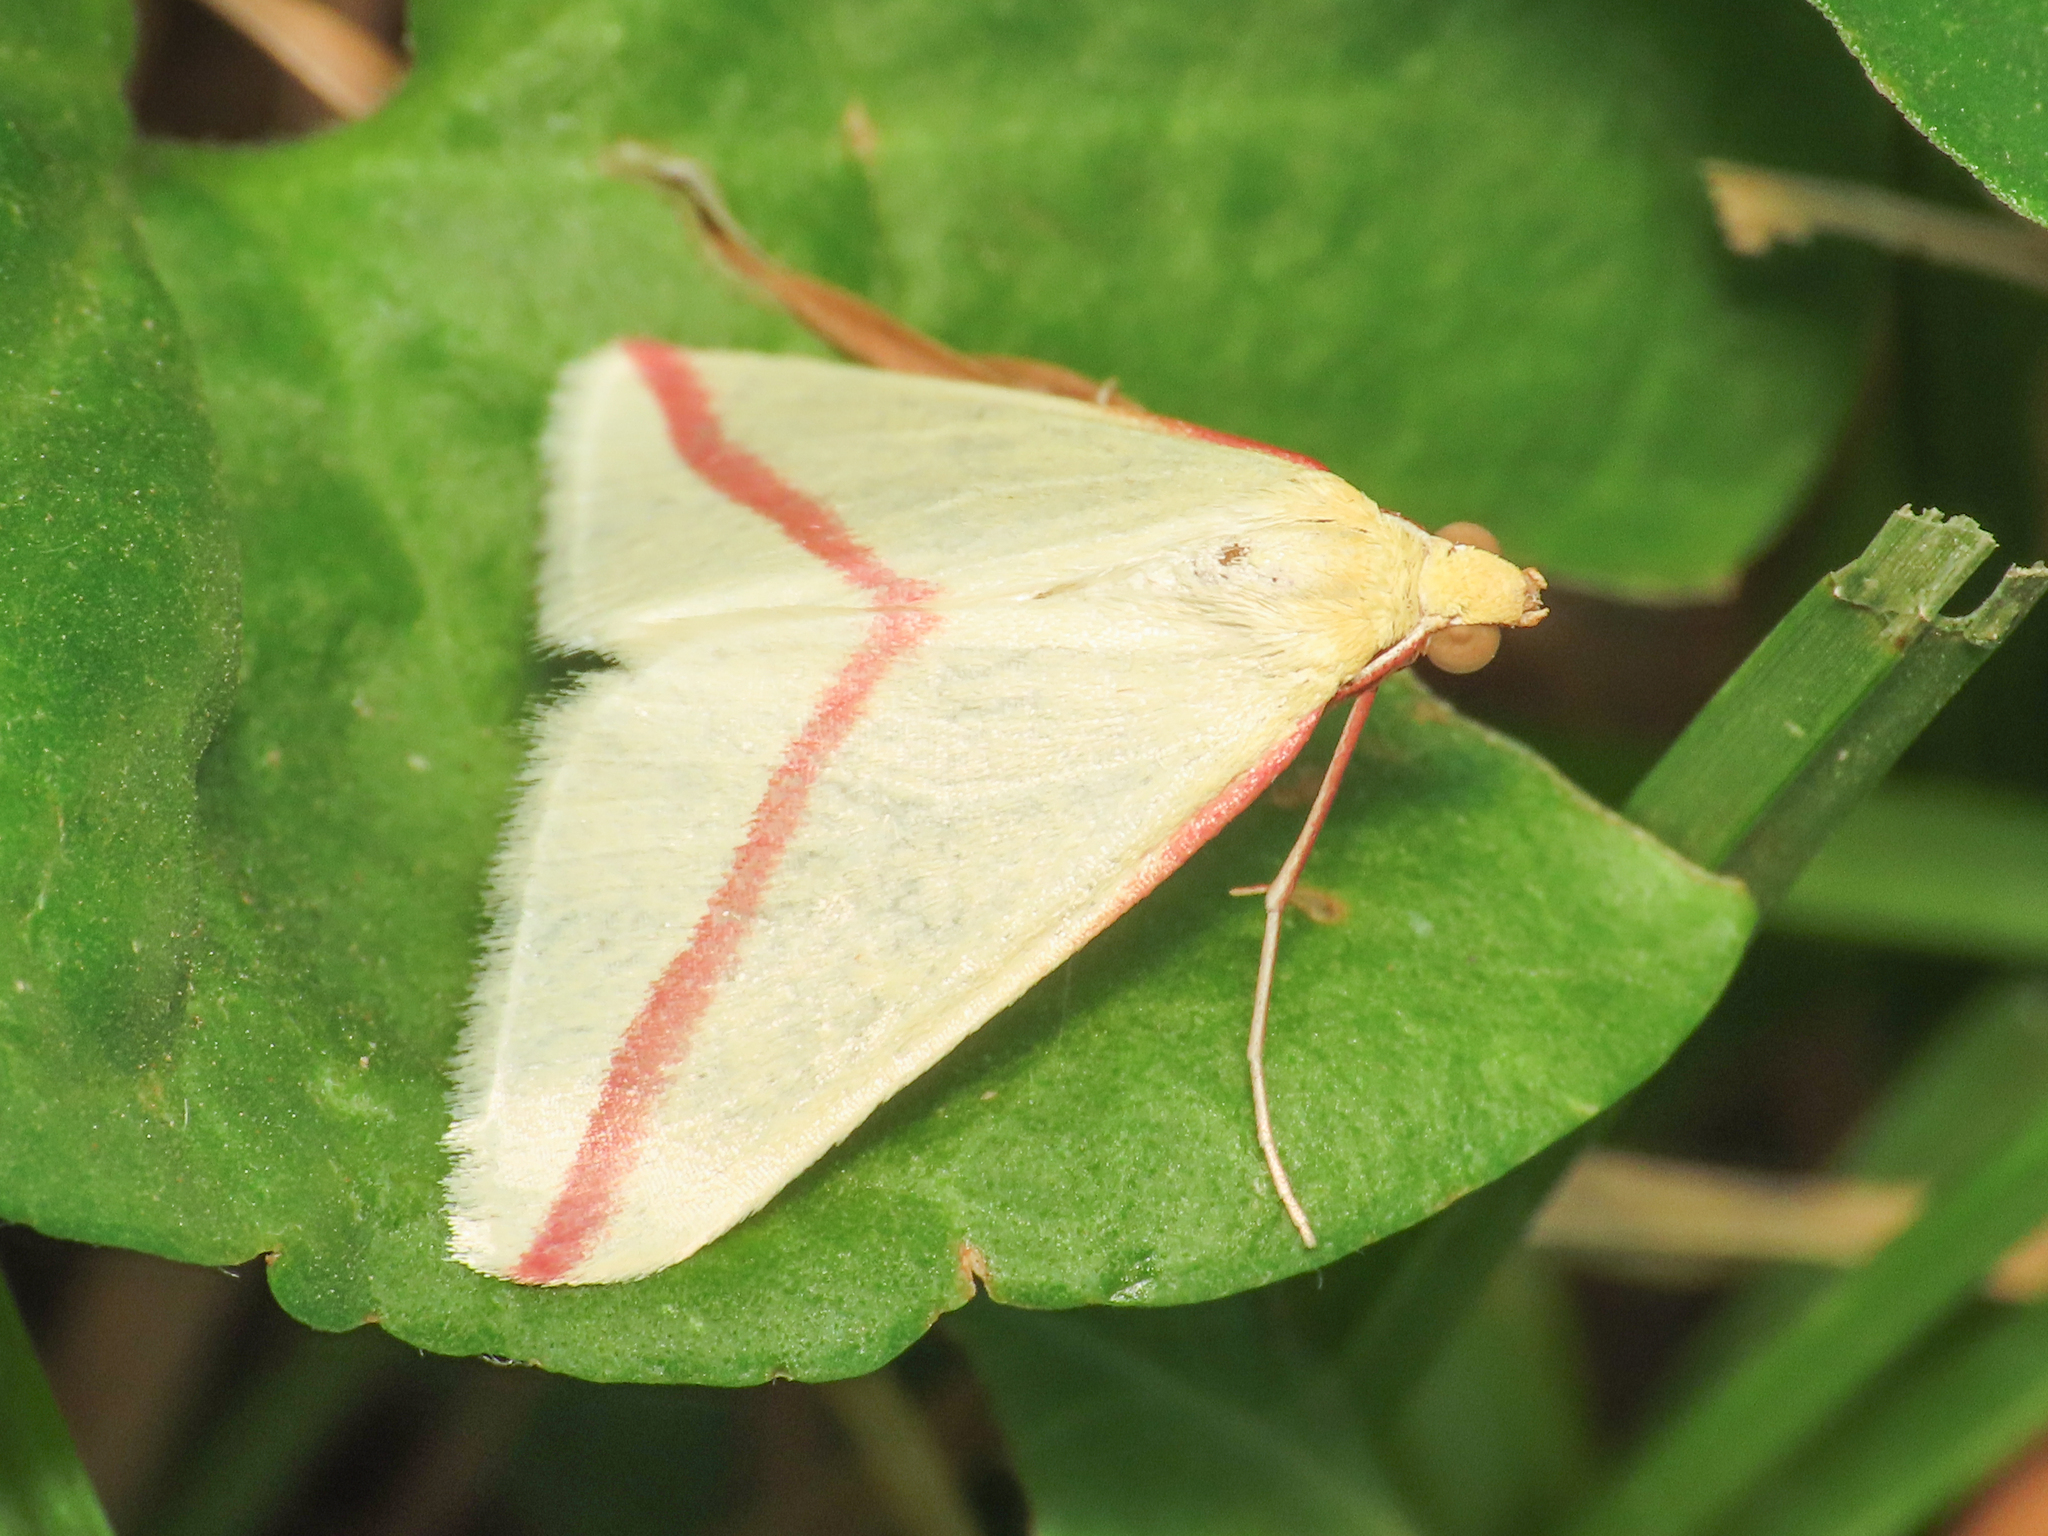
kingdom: Animalia
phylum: Arthropoda
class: Insecta
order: Lepidoptera
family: Geometridae
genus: Rhodometra
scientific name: Rhodometra sacraria
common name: Vestal
